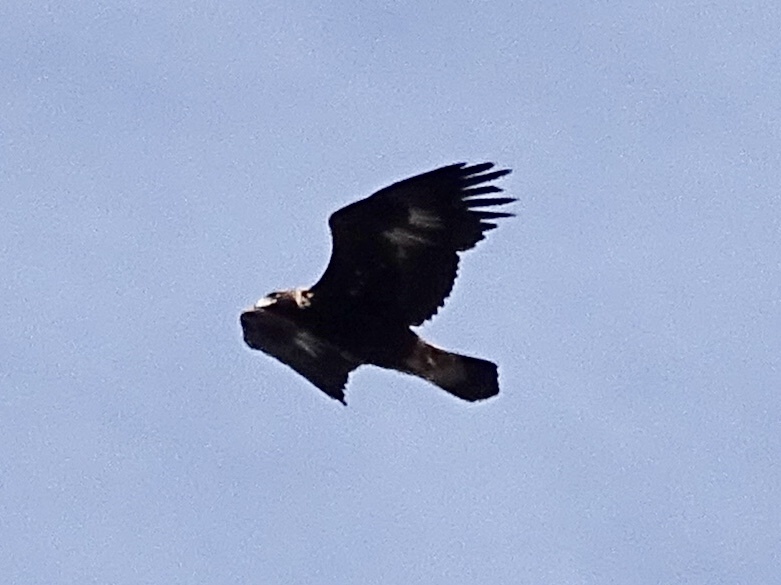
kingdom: Animalia
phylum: Chordata
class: Aves
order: Accipitriformes
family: Accipitridae
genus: Aquila
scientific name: Aquila chrysaetos
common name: Golden eagle
